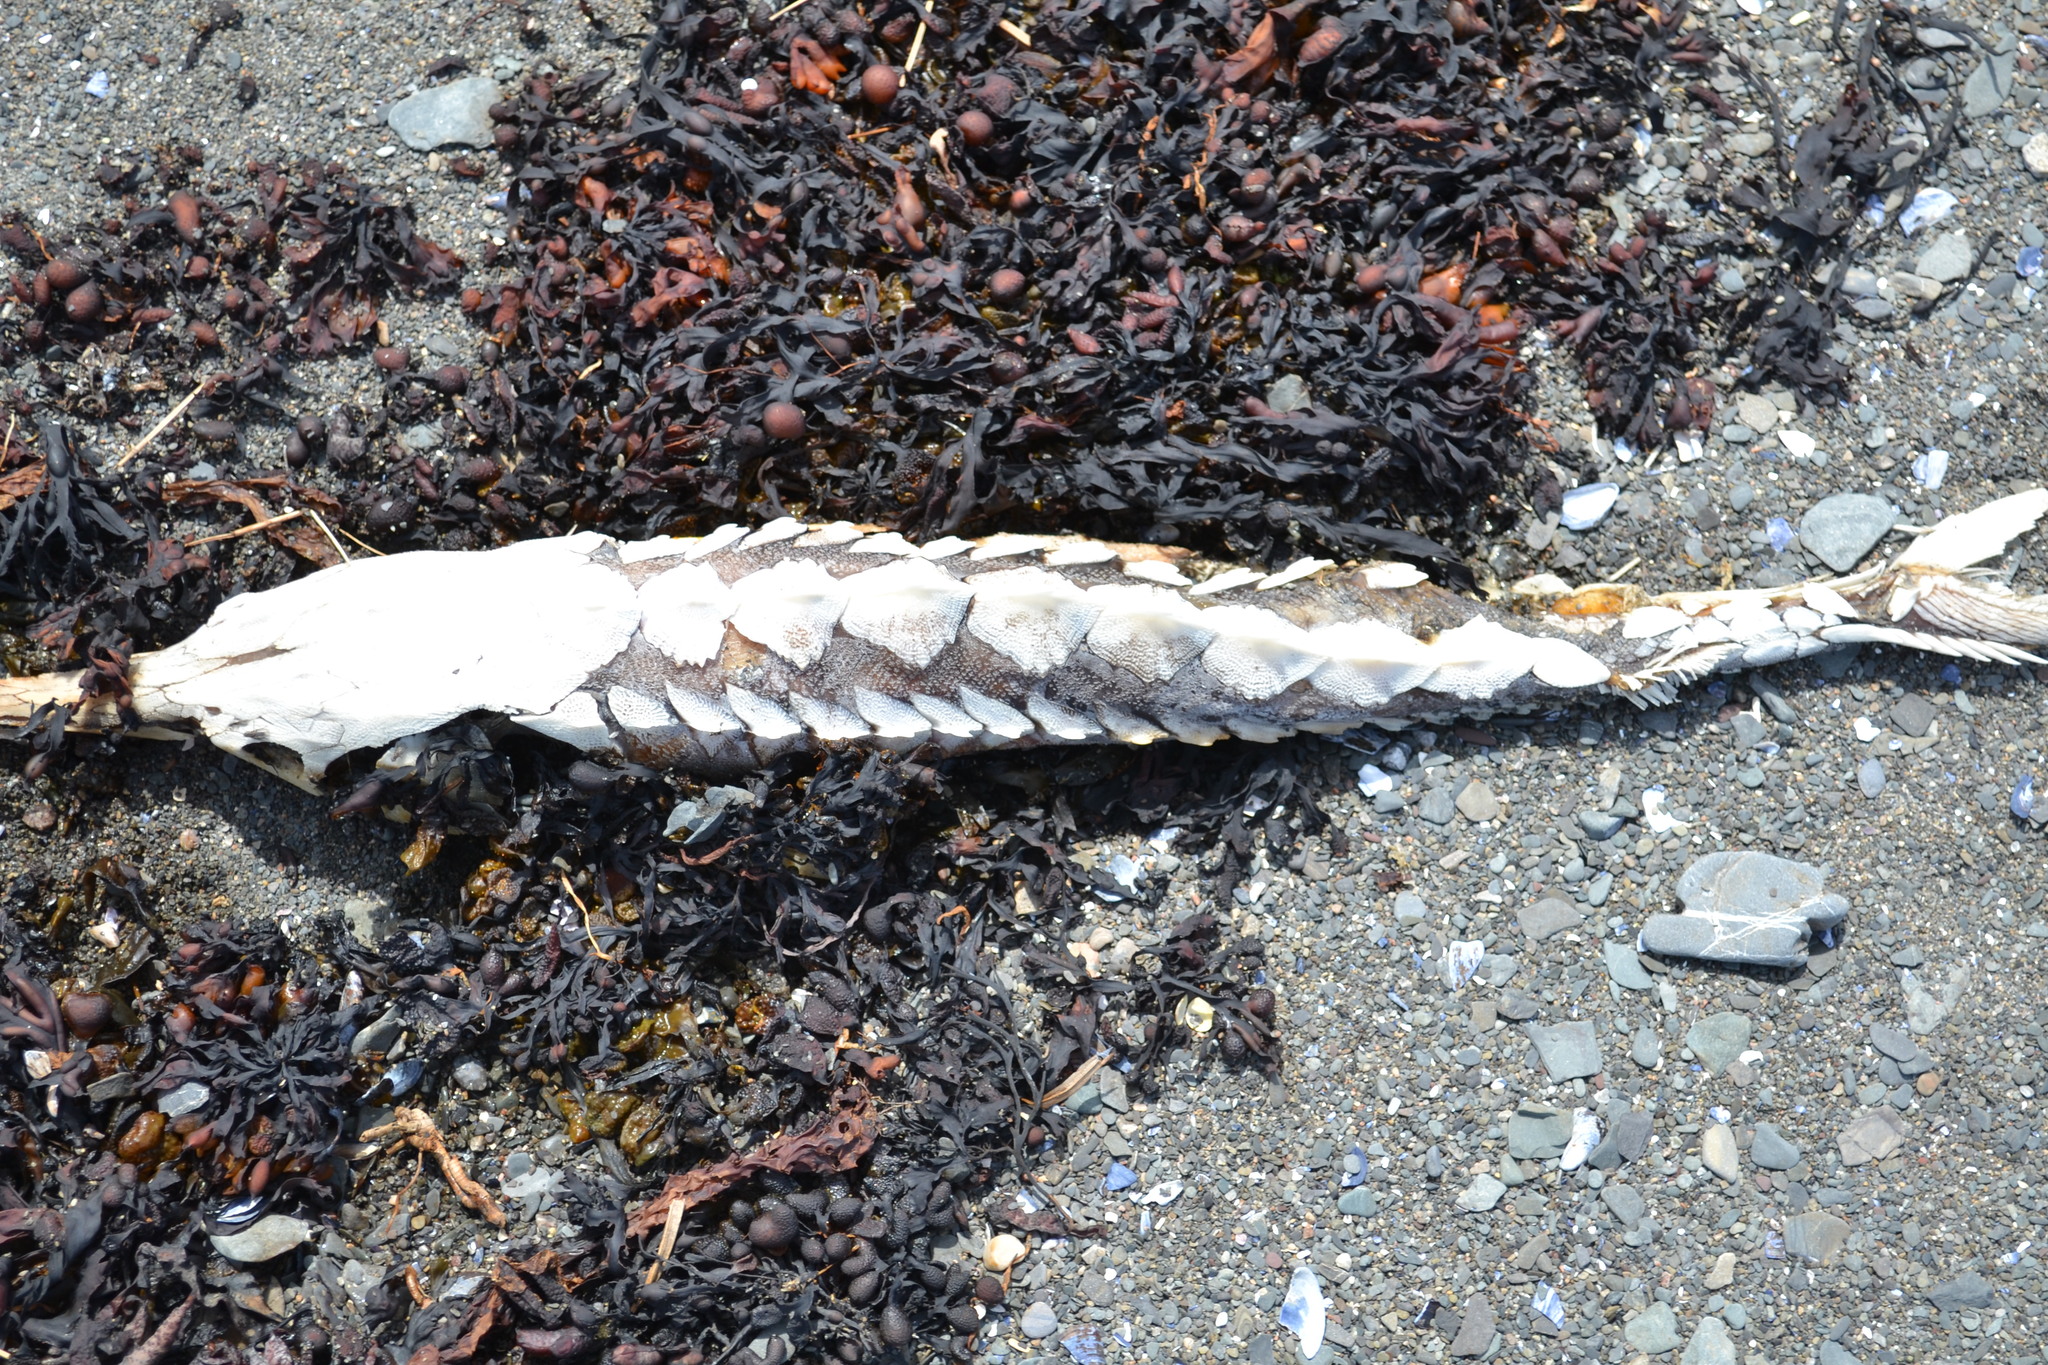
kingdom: Animalia
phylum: Chordata
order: Acipenseriformes
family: Acipenseridae
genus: Acipenser
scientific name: Acipenser oxyrinchus
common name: Atlantic sturgeon
